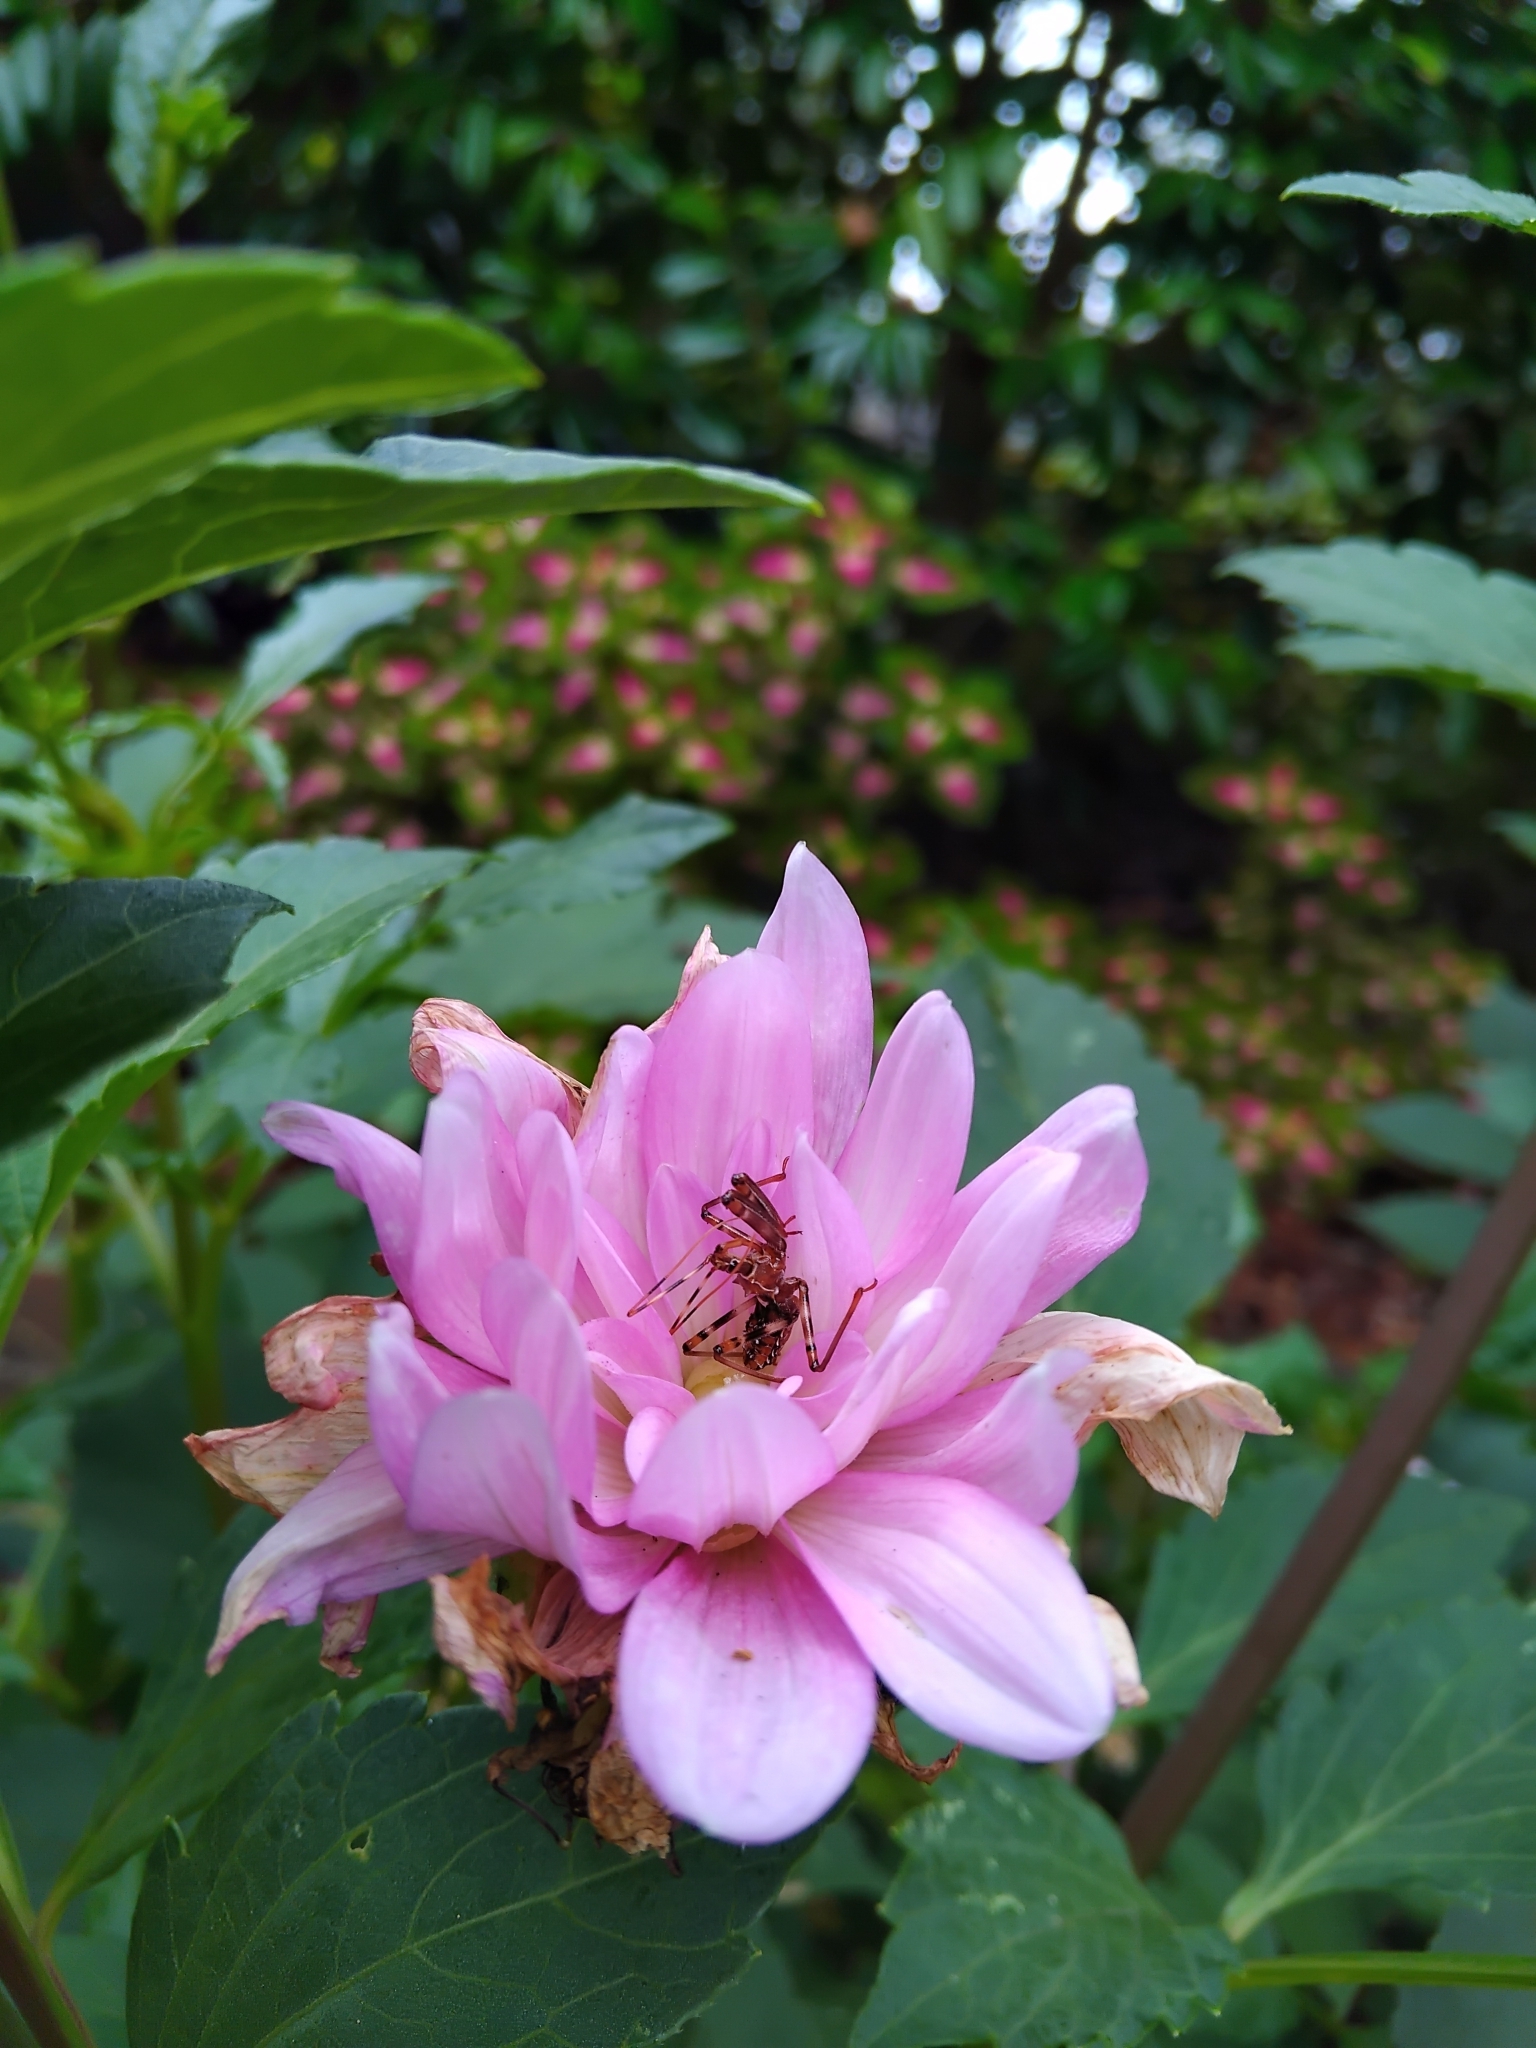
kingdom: Animalia
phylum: Arthropoda
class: Insecta
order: Hemiptera
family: Reduviidae
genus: Pristhesancus
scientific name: Pristhesancus plagipennis
